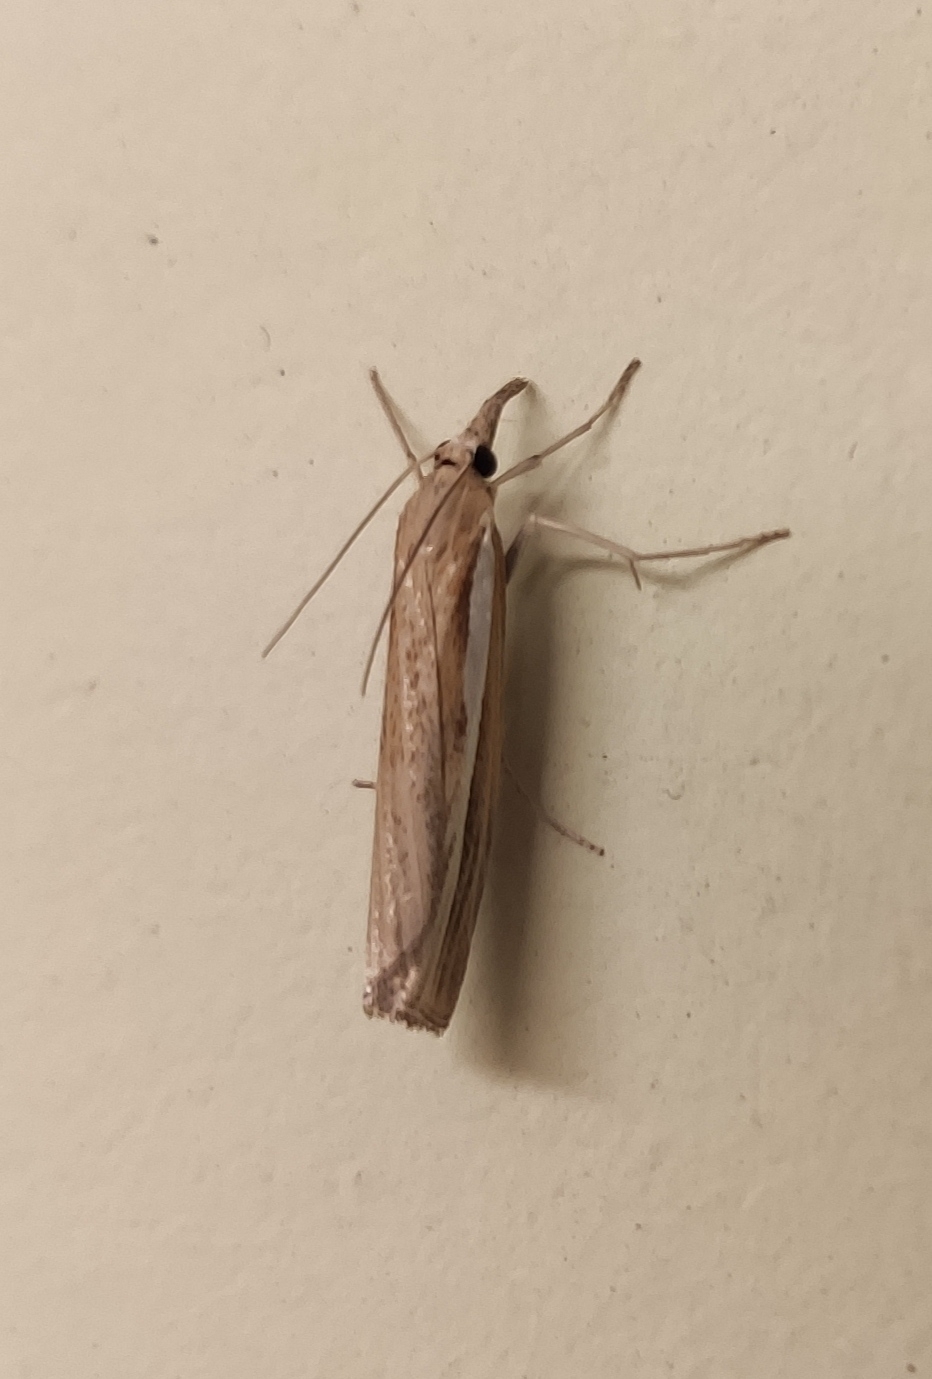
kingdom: Animalia
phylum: Arthropoda
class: Insecta
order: Lepidoptera
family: Crambidae
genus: Agriphila
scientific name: Agriphila tristellus
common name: Common grass-veneer
